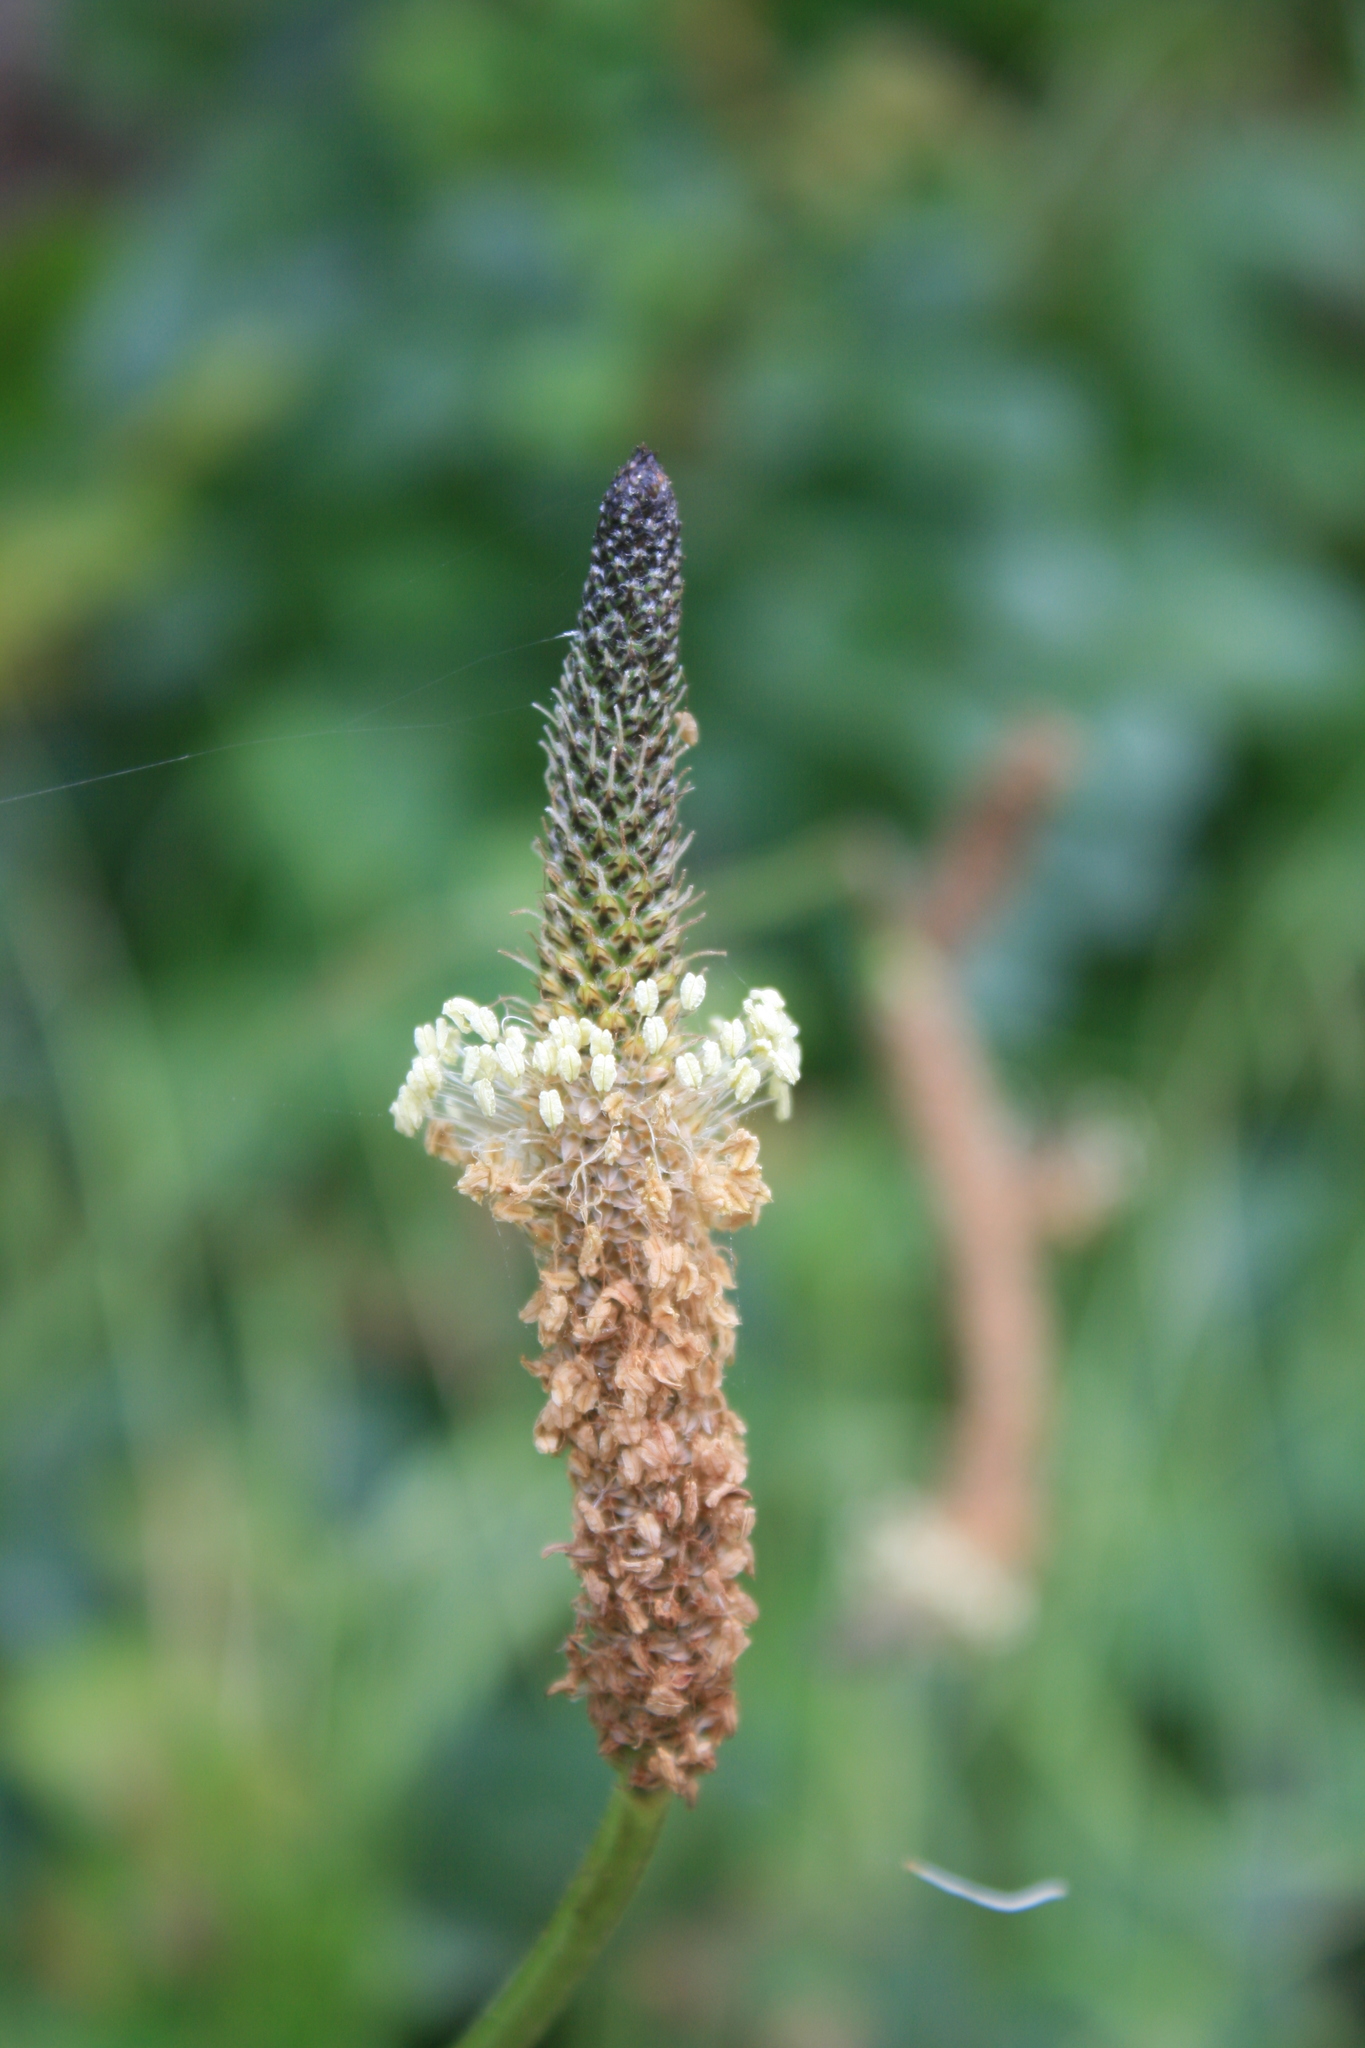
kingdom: Plantae
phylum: Tracheophyta
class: Magnoliopsida
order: Lamiales
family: Plantaginaceae
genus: Plantago
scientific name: Plantago lanceolata
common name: Ribwort plantain
